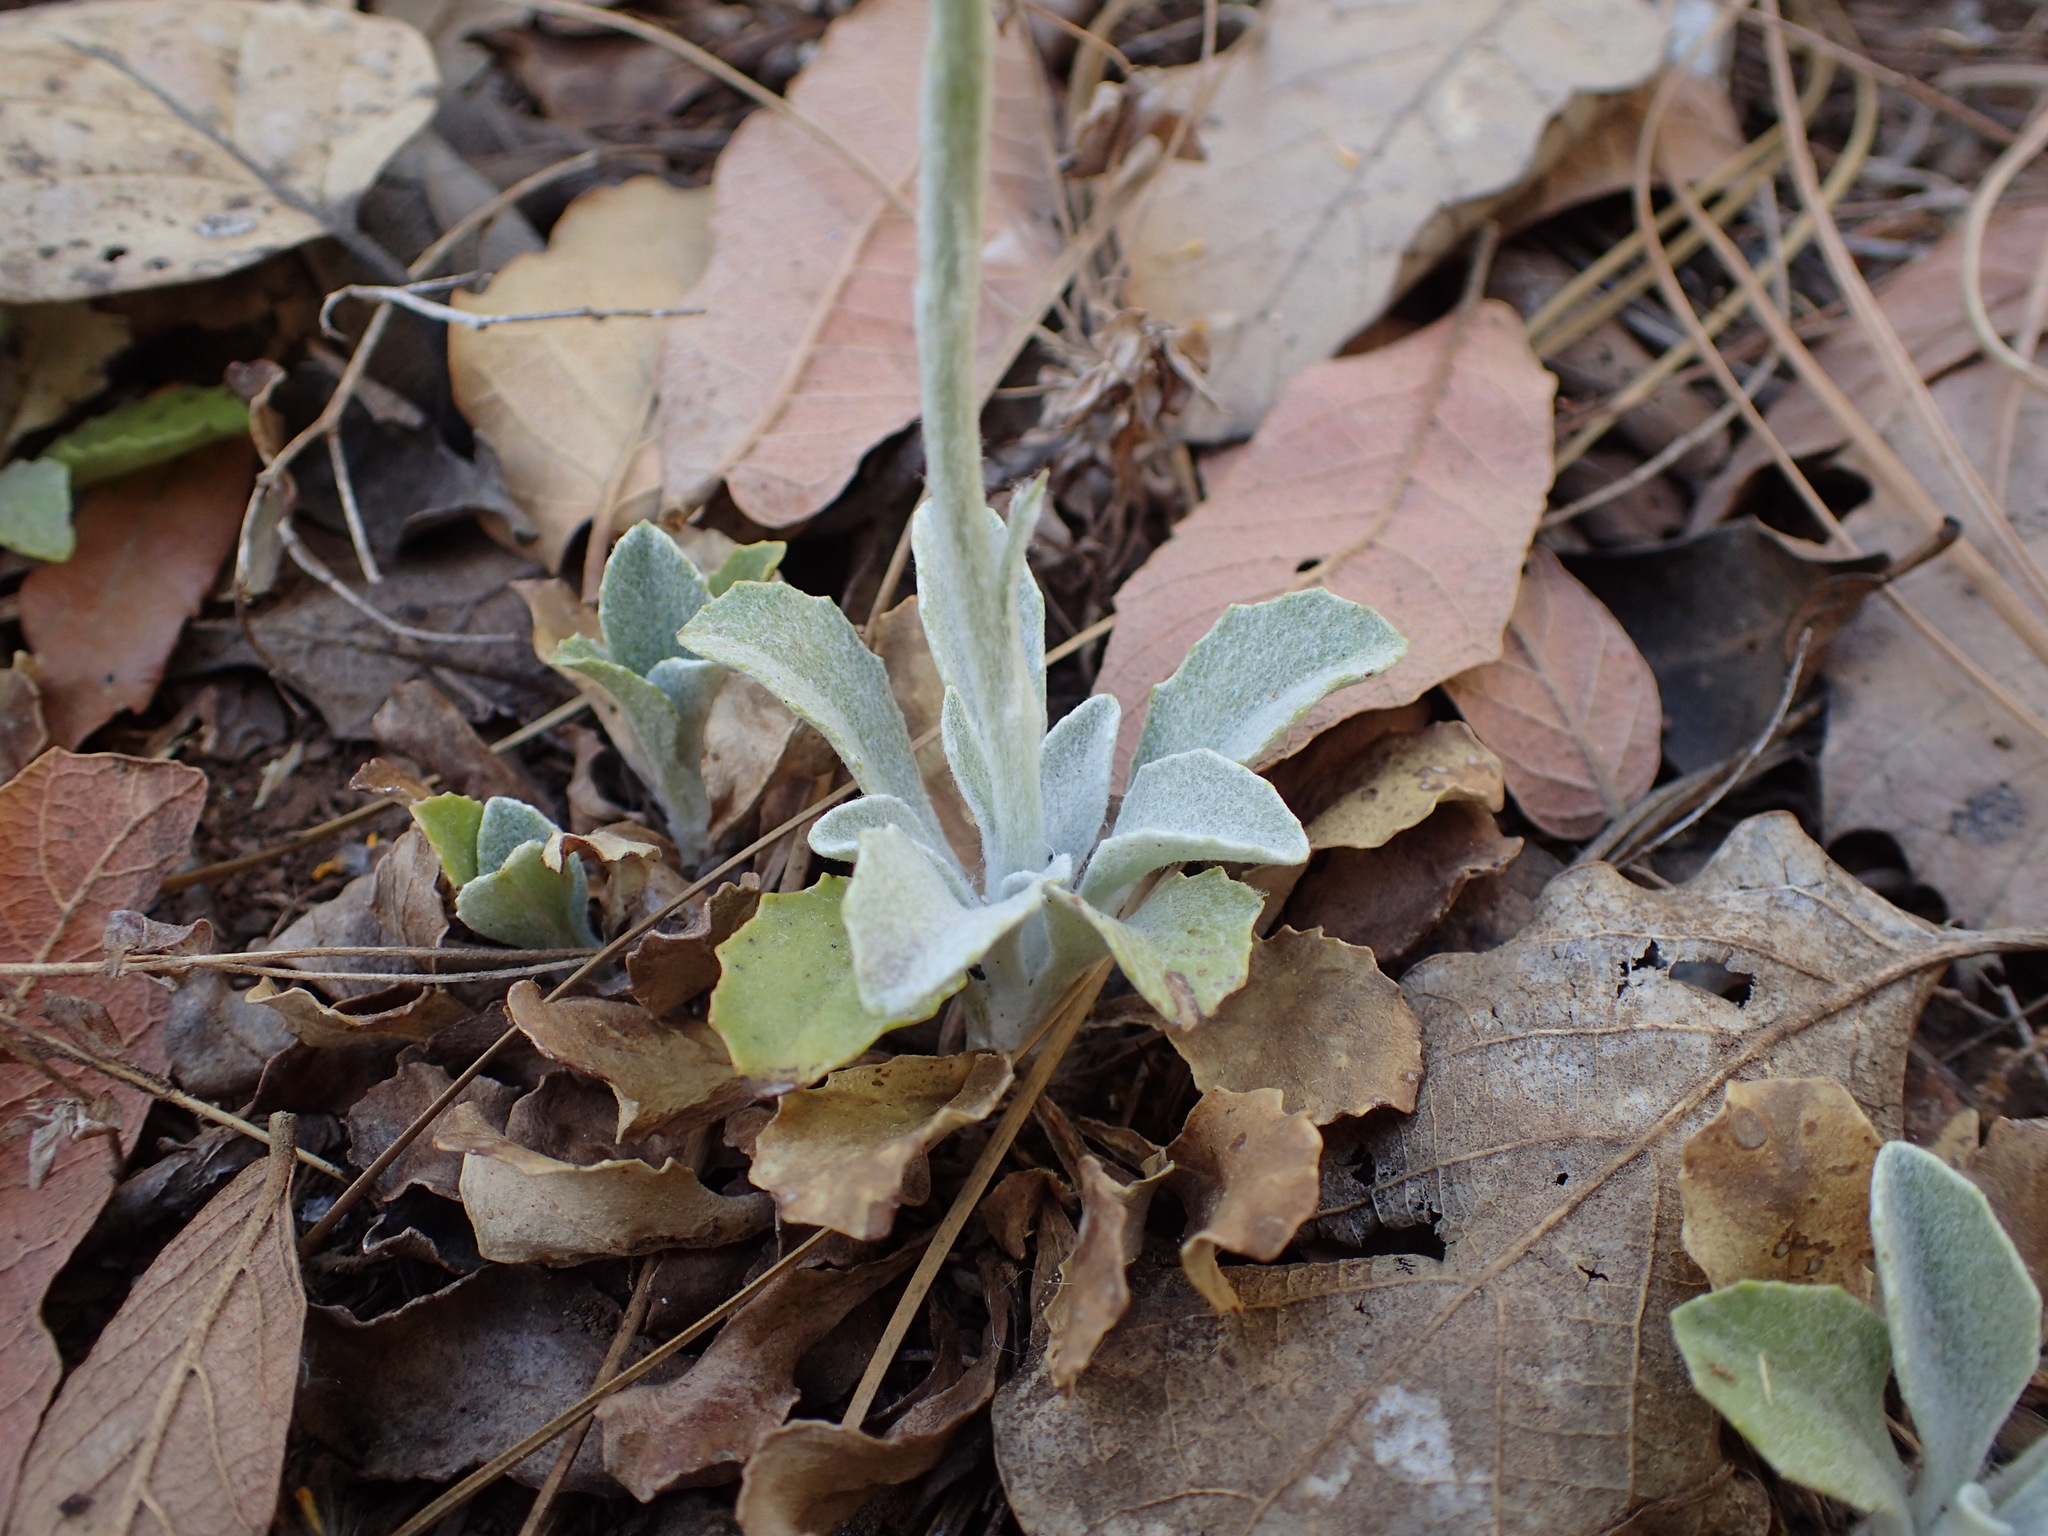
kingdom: Plantae
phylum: Tracheophyta
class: Magnoliopsida
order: Asterales
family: Asteraceae
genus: Packera
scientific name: Packera actinella
